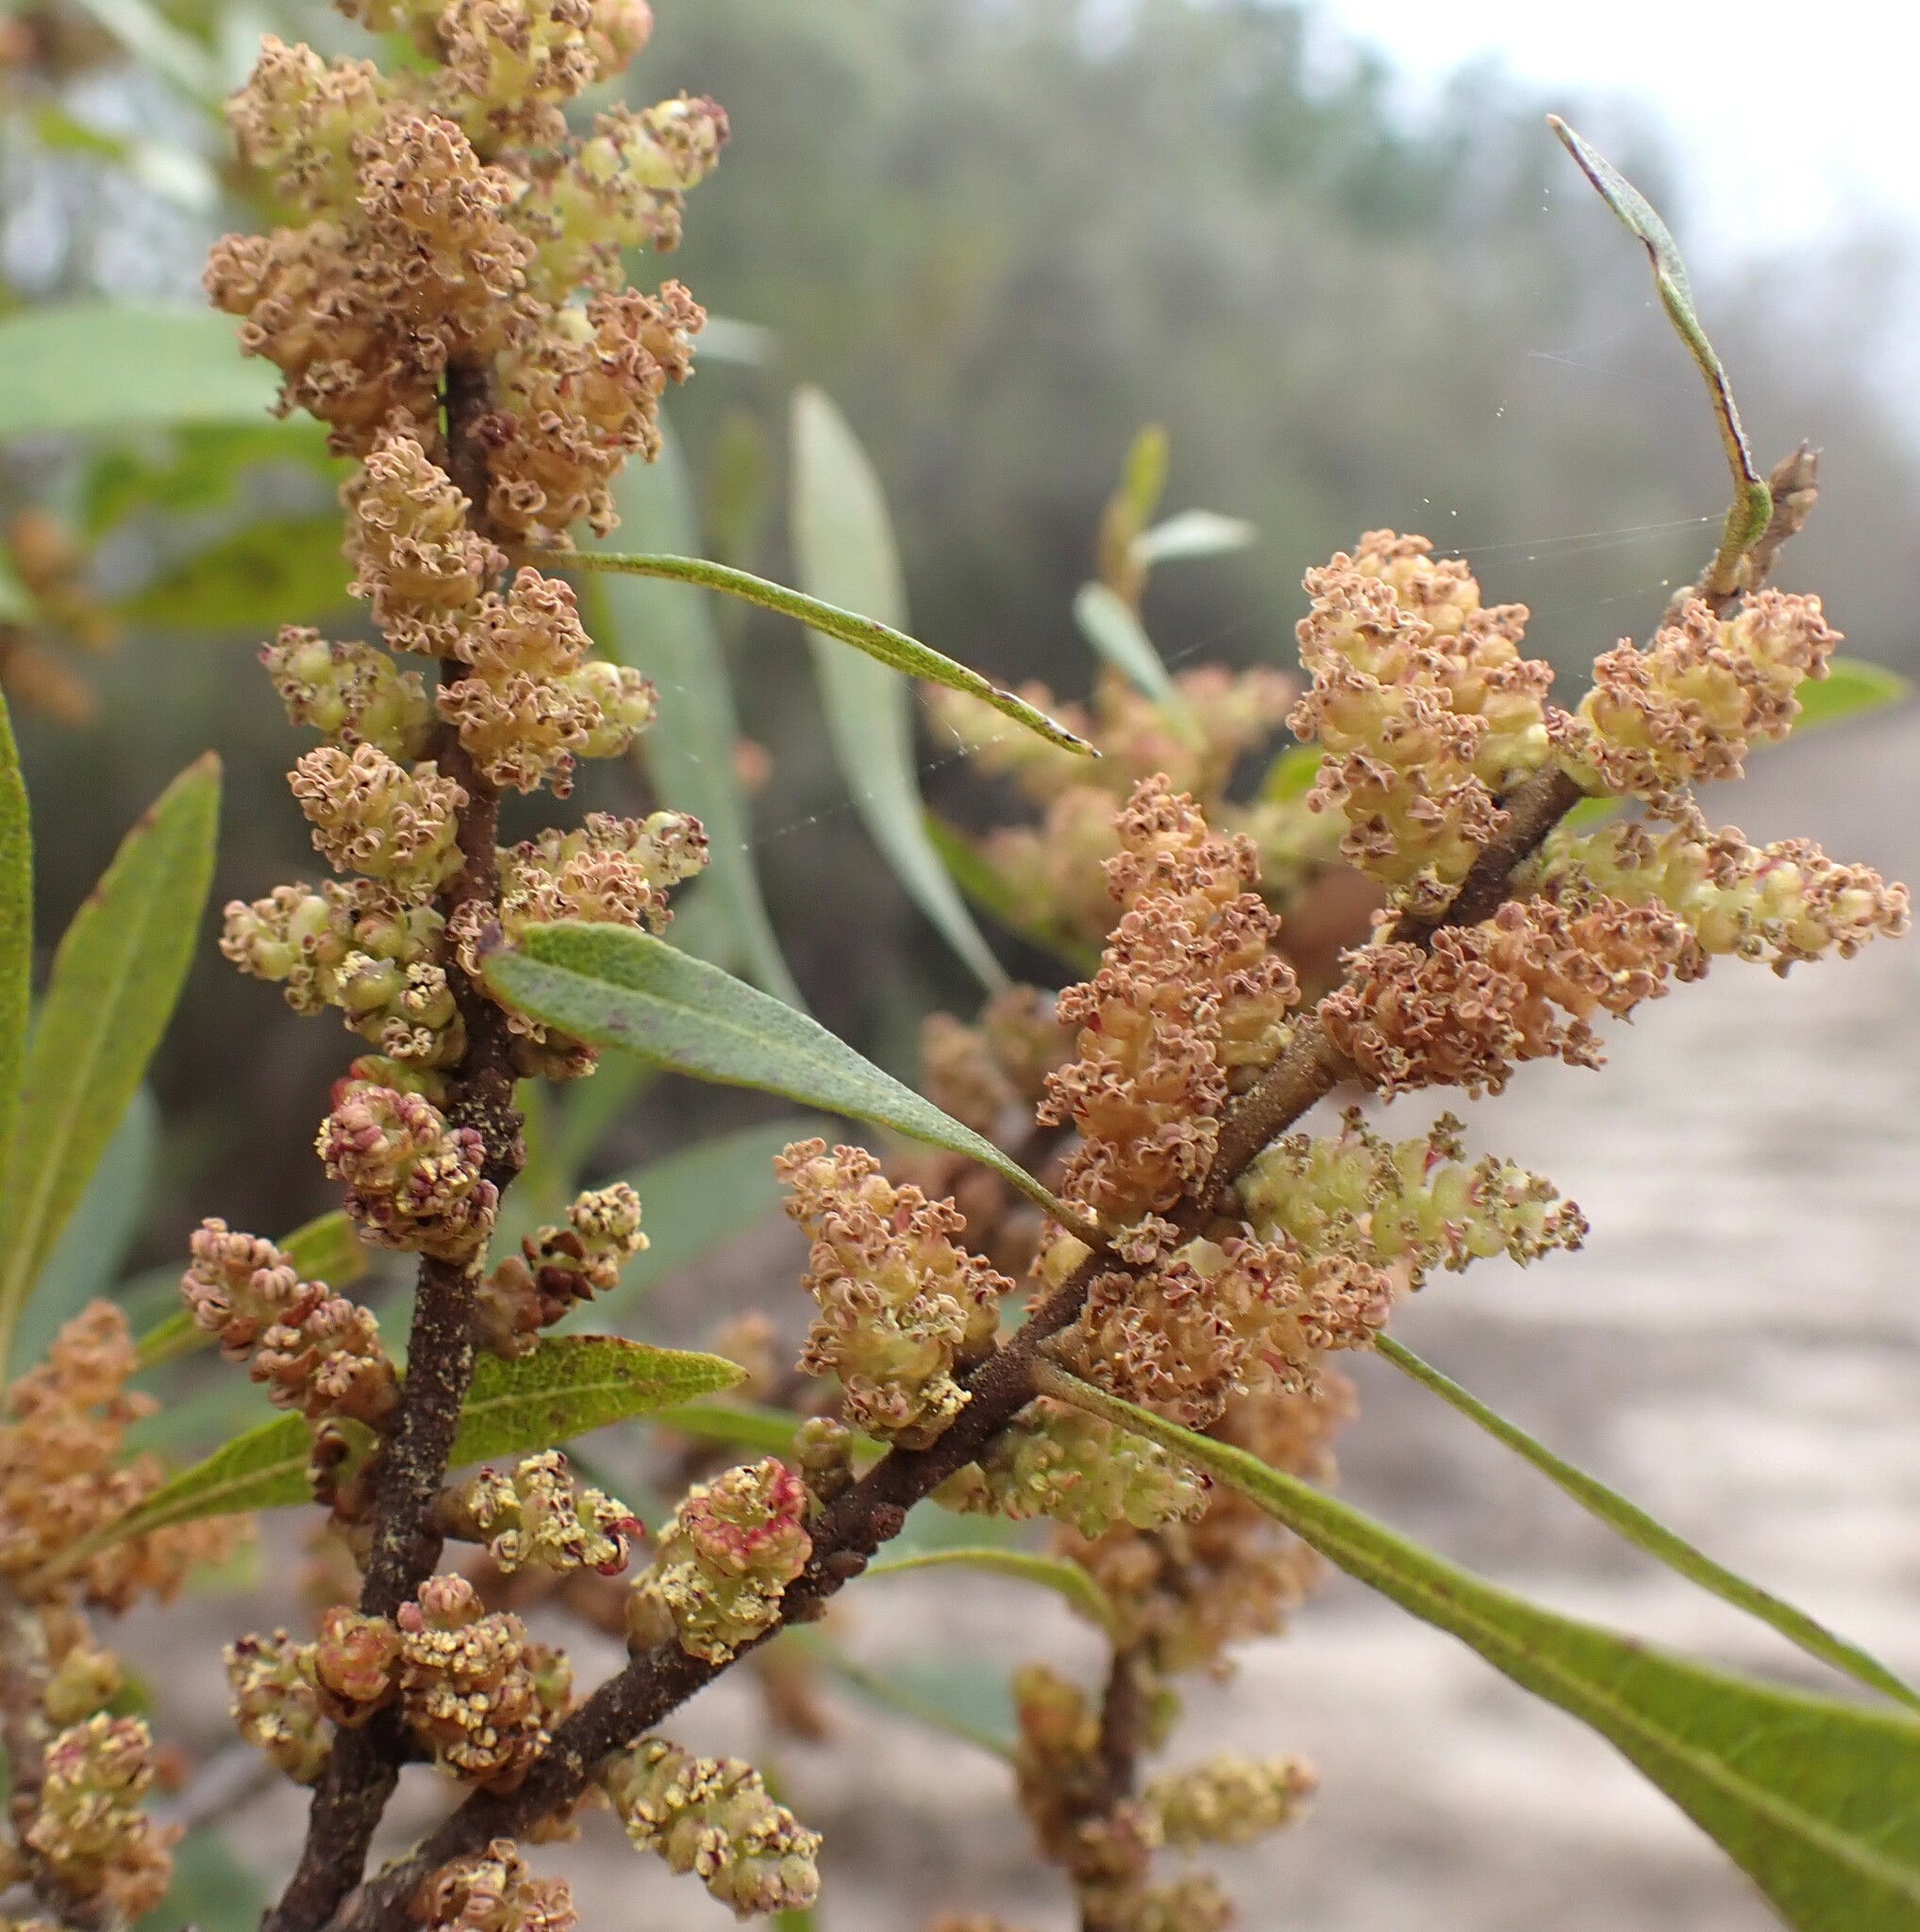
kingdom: Plantae
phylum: Tracheophyta
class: Magnoliopsida
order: Fagales
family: Myricaceae
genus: Morella
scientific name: Morella cerifera
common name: Wax myrtle
